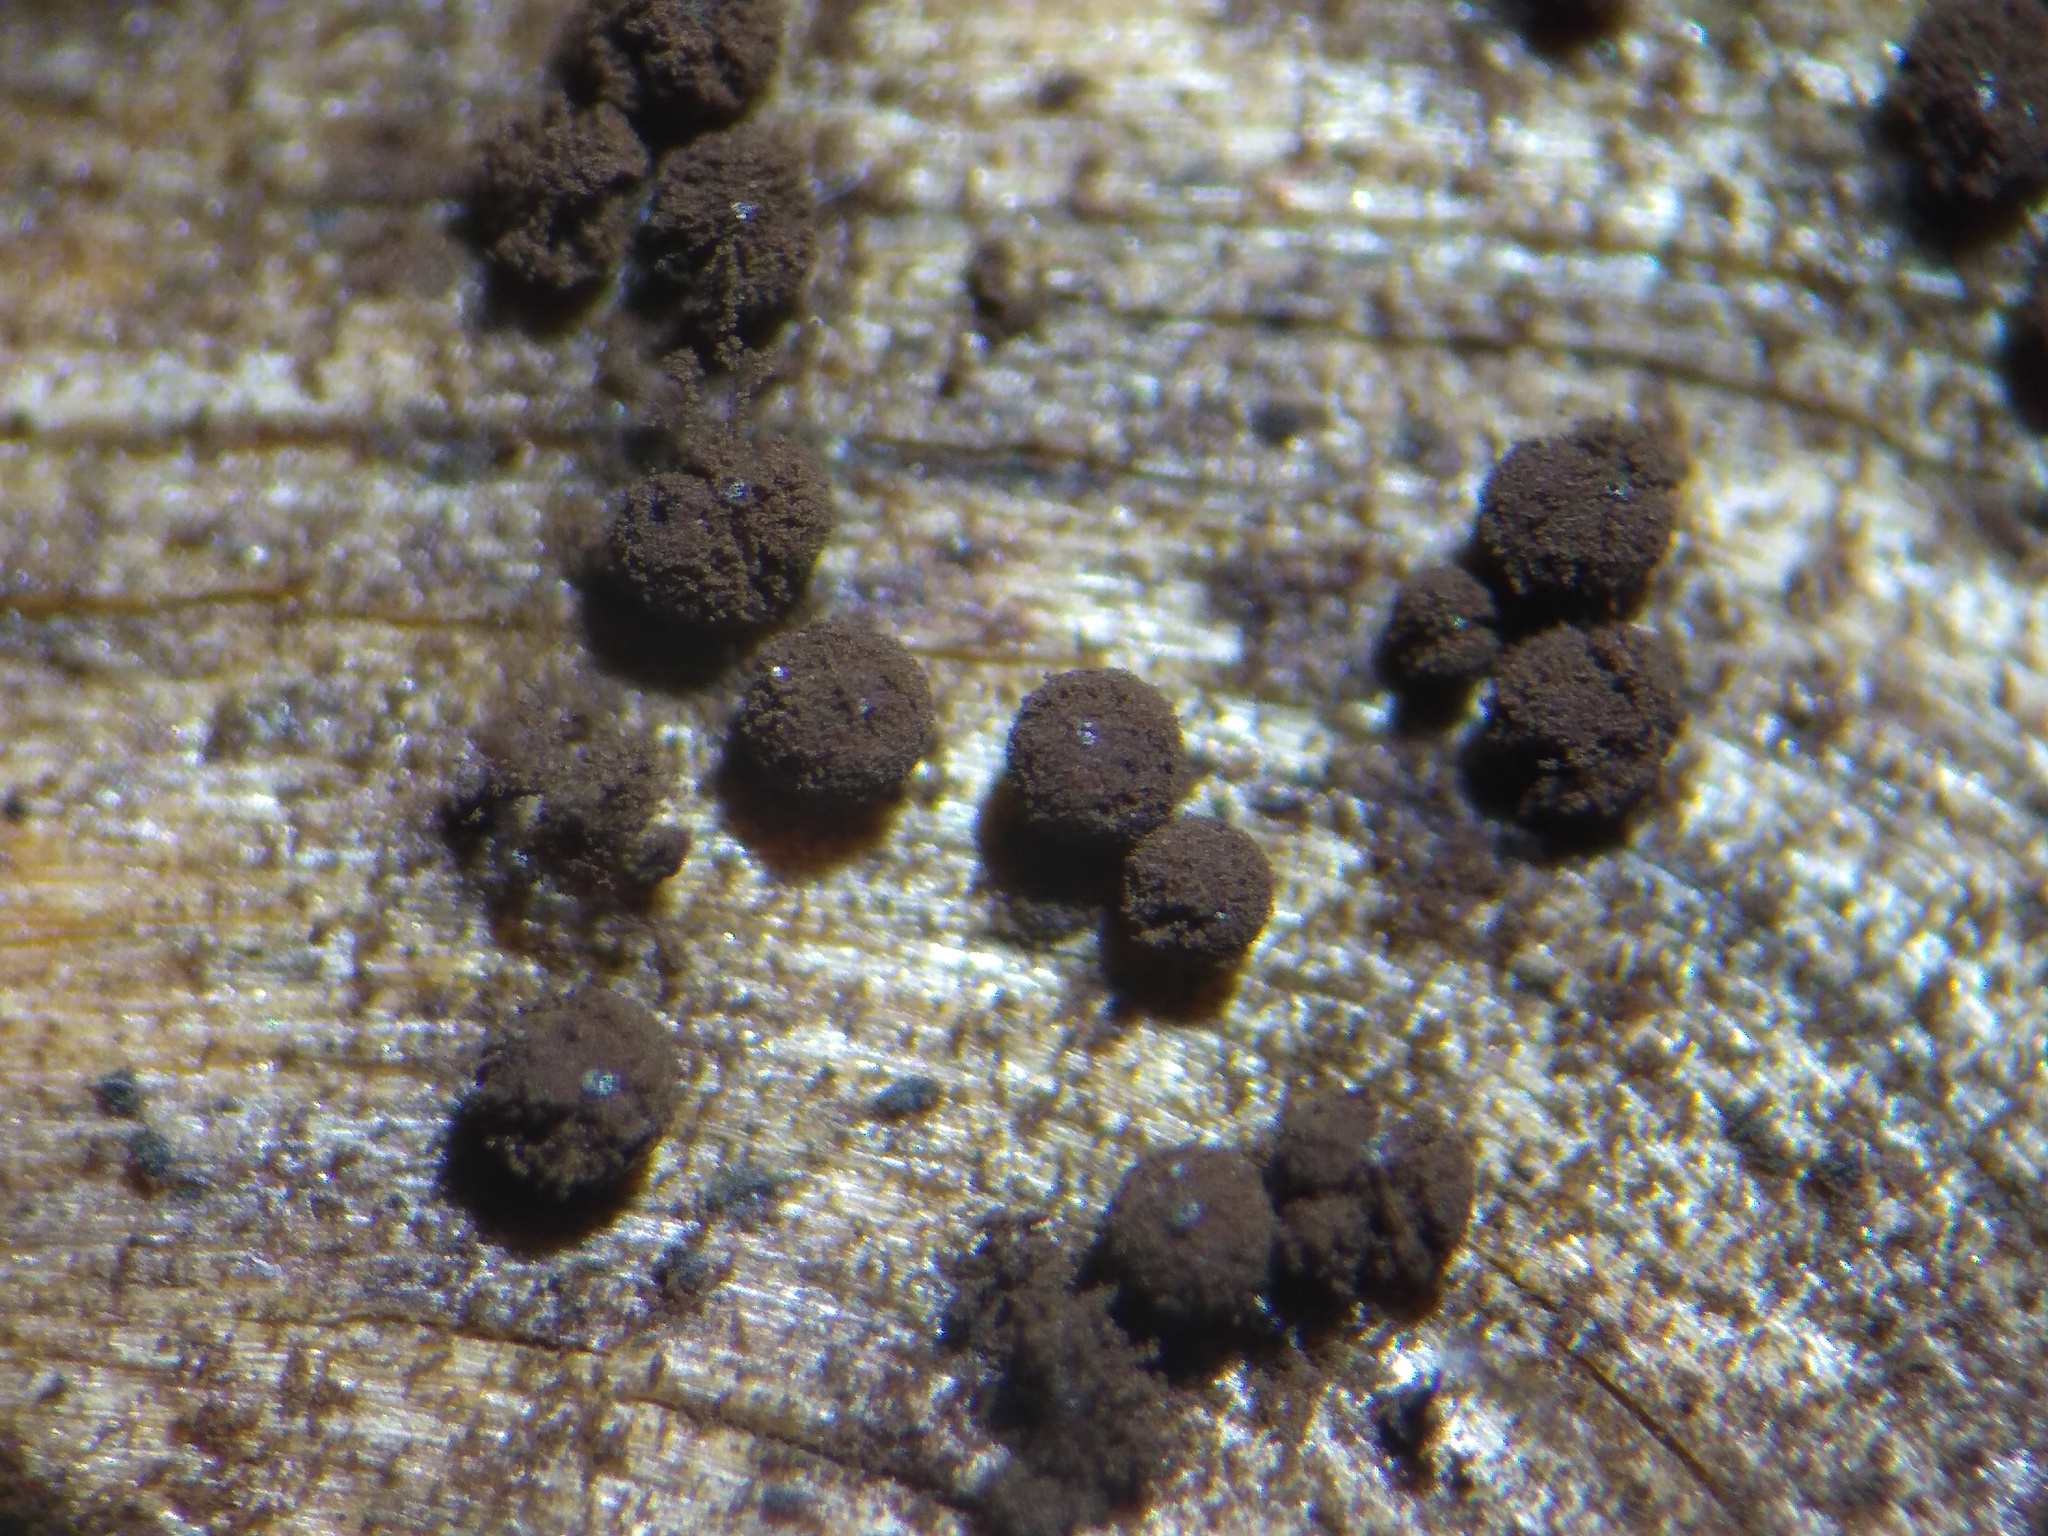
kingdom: Protozoa
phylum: Mycetozoa
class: Myxomycetes
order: Stemonitidales
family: Stemonitidaceae
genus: Enerthenema
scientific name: Enerthenema papillatum
